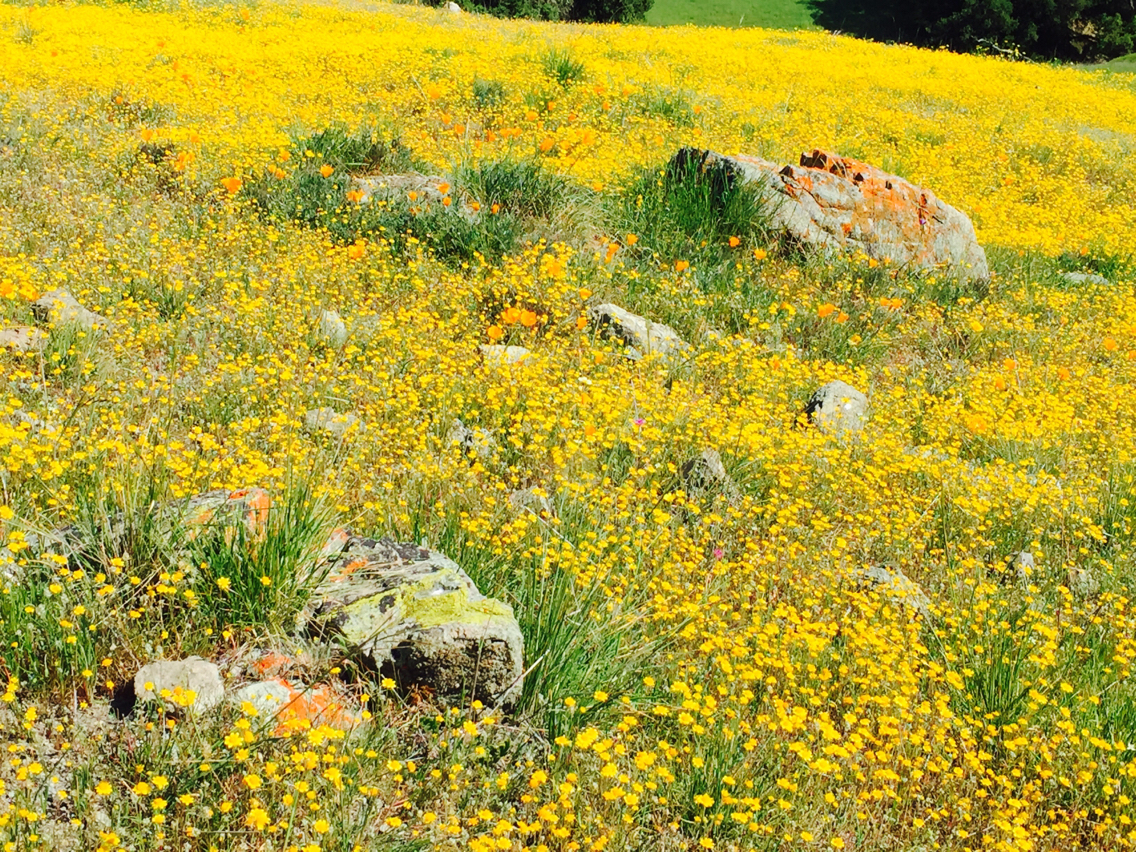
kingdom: Plantae
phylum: Tracheophyta
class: Magnoliopsida
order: Asterales
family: Asteraceae
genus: Lasthenia
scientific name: Lasthenia californica
